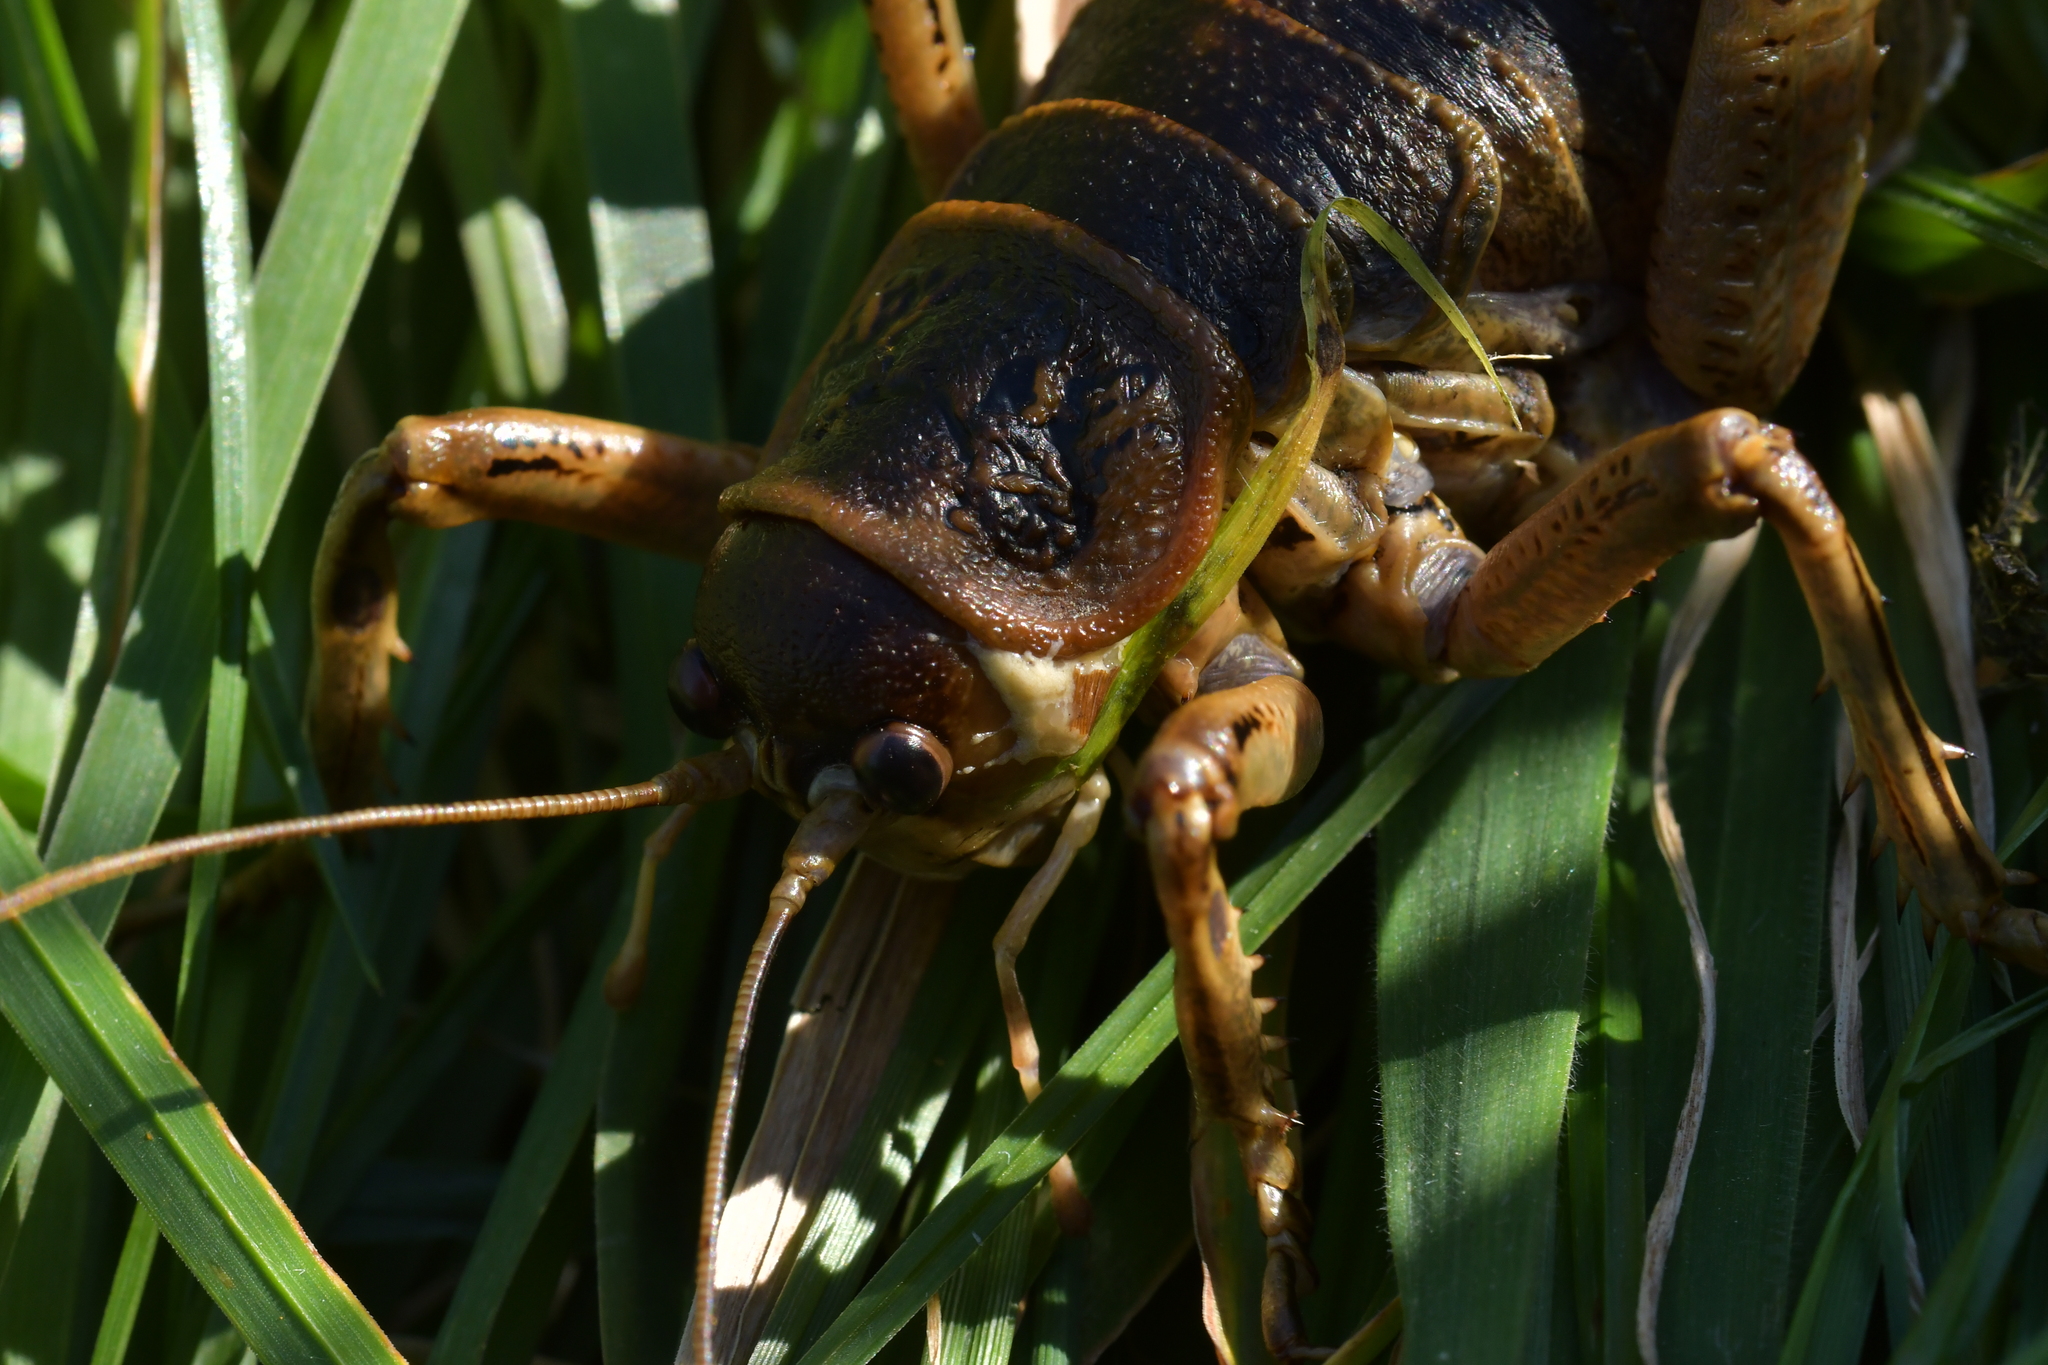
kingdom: Animalia
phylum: Arthropoda
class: Insecta
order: Orthoptera
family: Anostostomatidae
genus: Deinacrida
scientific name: Deinacrida rugosa
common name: Stephens island weta
